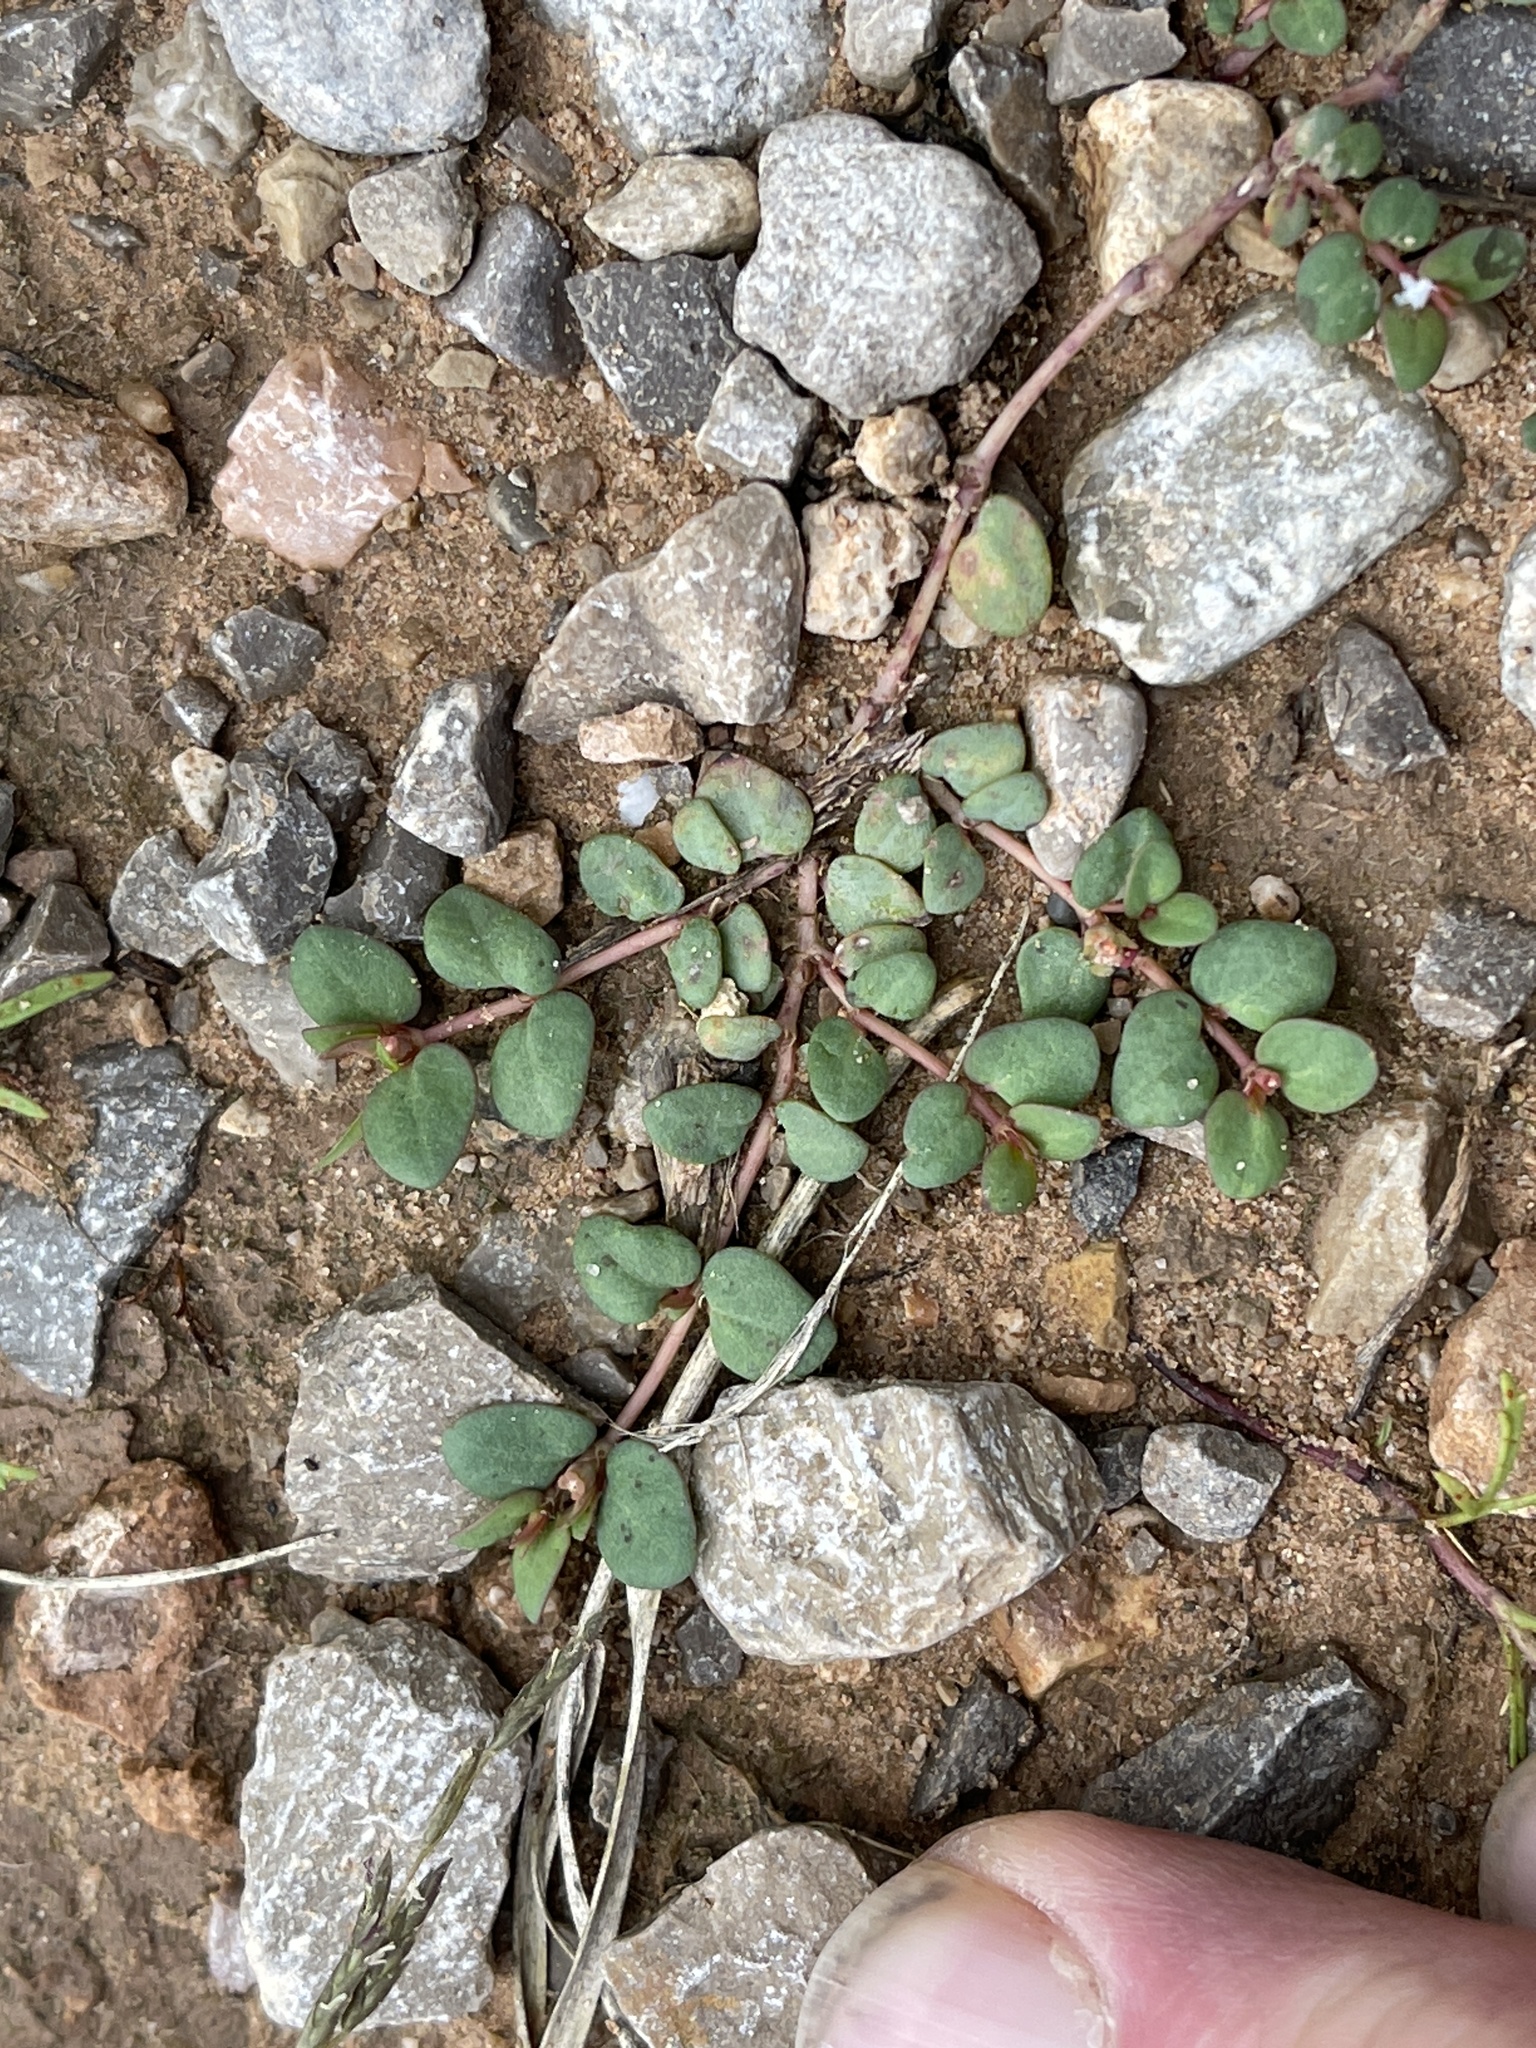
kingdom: Plantae
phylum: Tracheophyta
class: Magnoliopsida
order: Malpighiales
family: Euphorbiaceae
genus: Euphorbia
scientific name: Euphorbia fendleri
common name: Fendler's euphorbia
